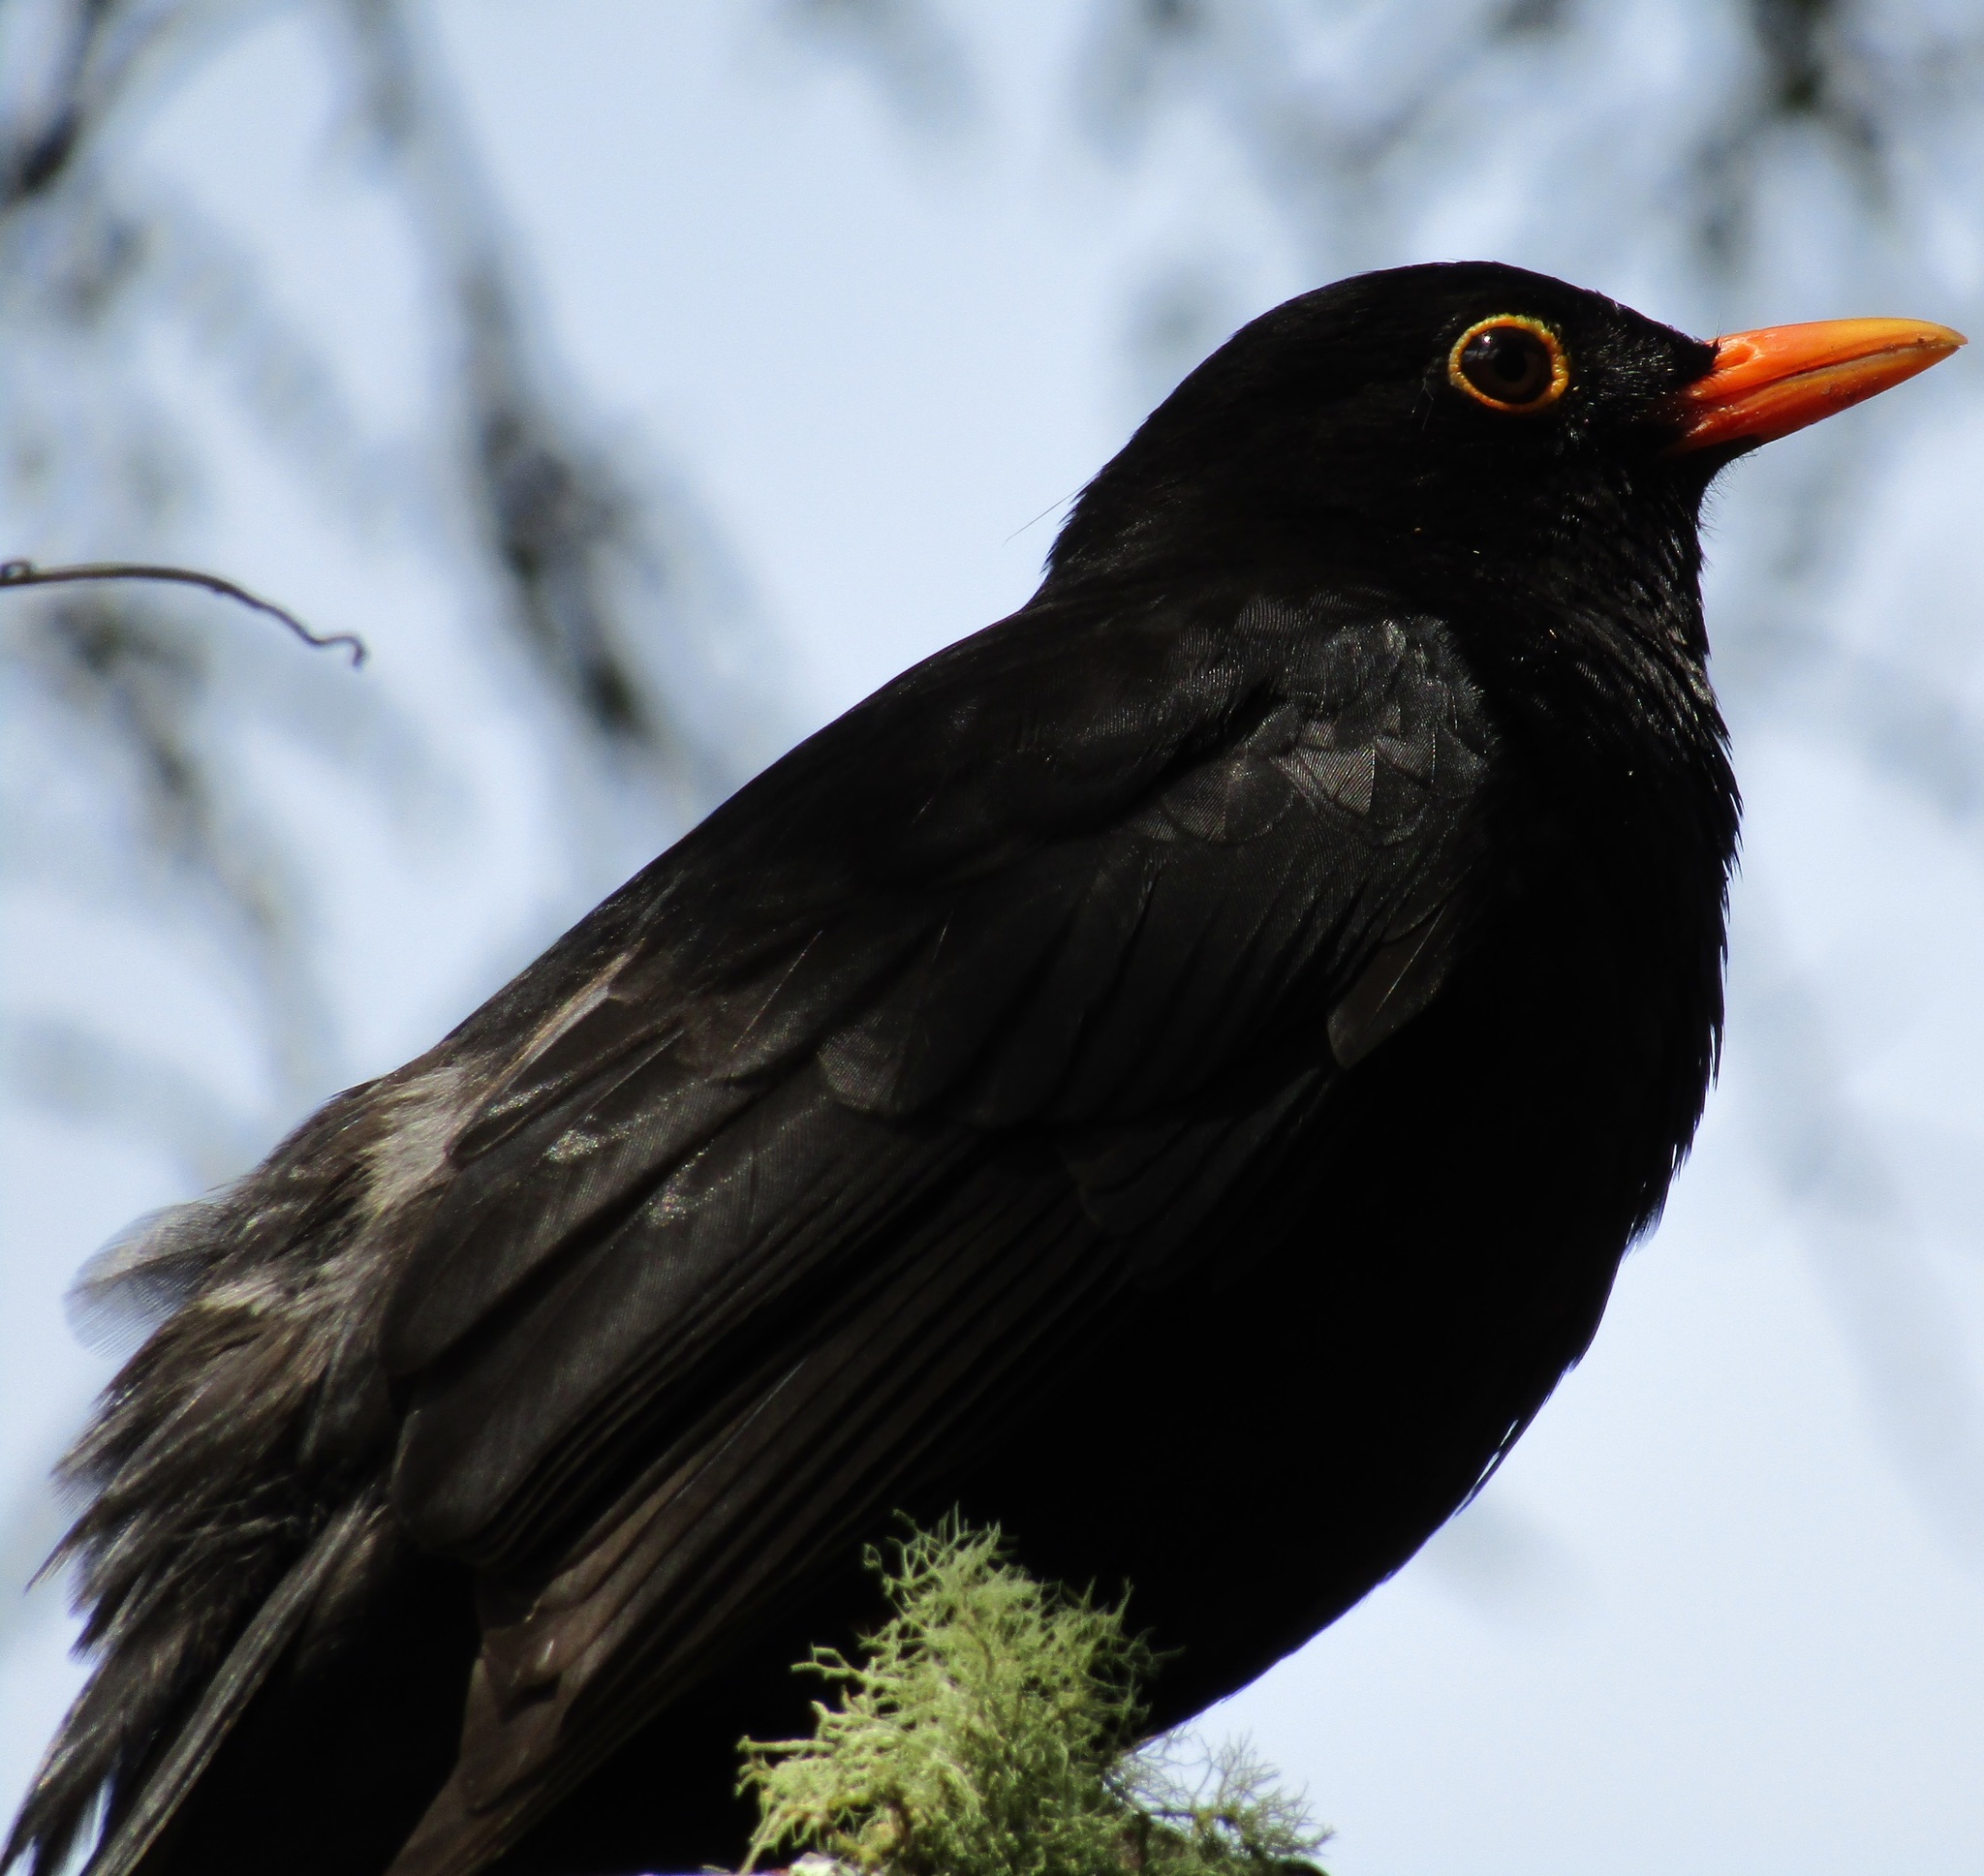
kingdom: Animalia
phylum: Chordata
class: Aves
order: Passeriformes
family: Turdidae
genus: Turdus
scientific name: Turdus merula
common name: Common blackbird
